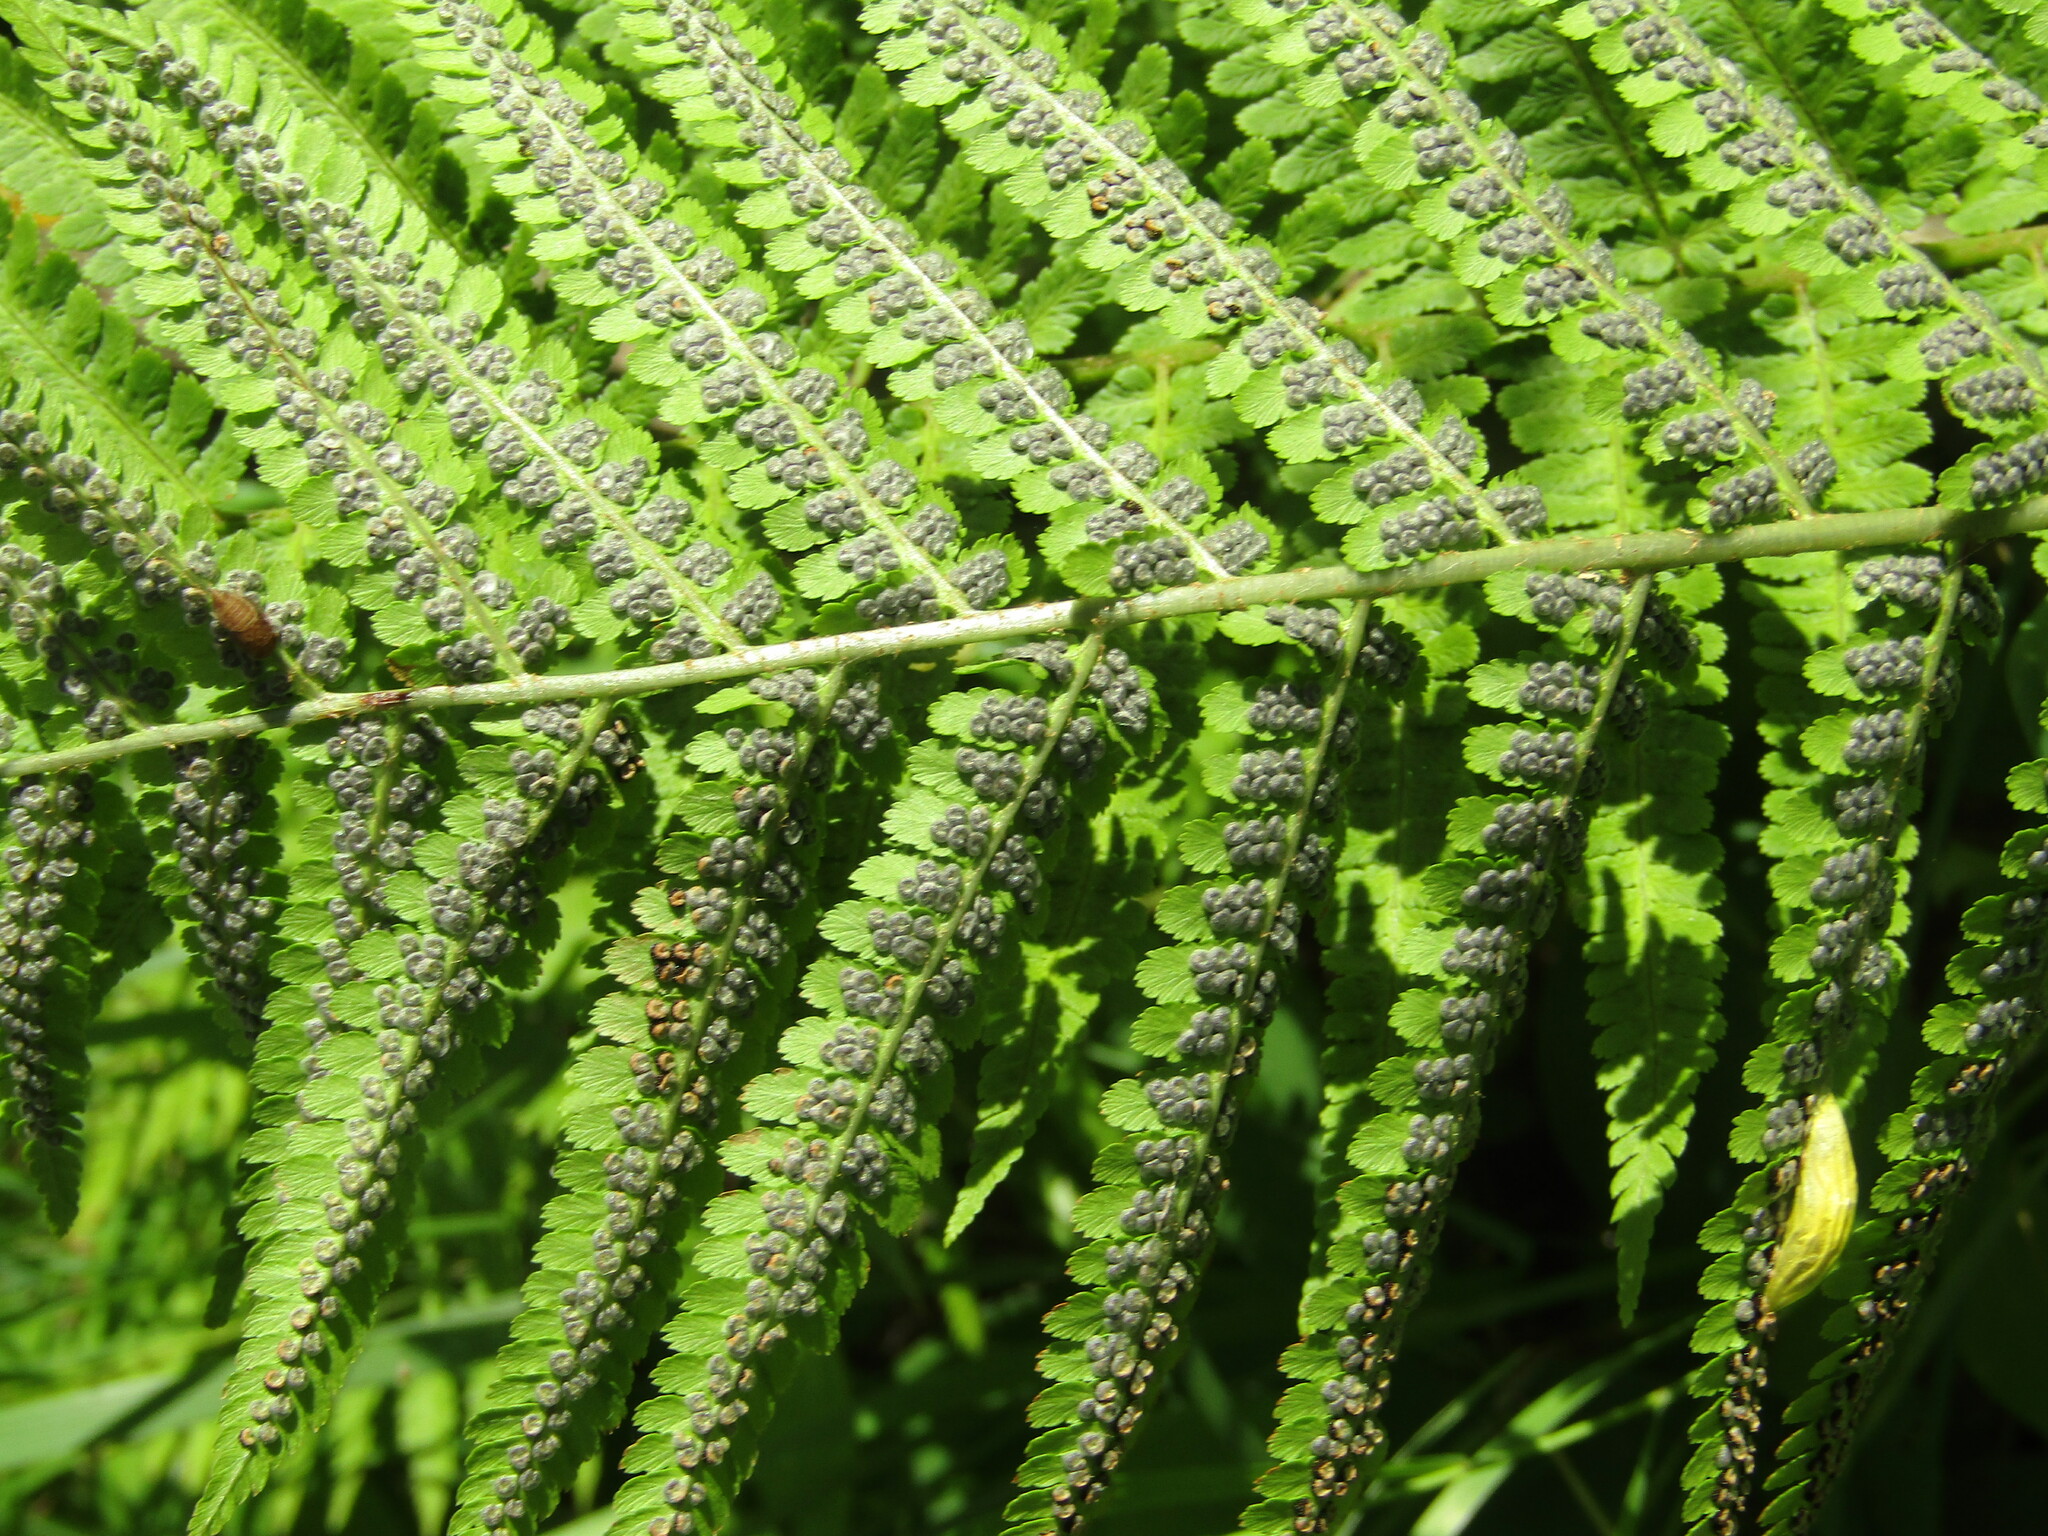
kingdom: Plantae
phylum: Tracheophyta
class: Polypodiopsida
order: Polypodiales
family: Dryopteridaceae
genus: Dryopteris
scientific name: Dryopteris filix-mas
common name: Male fern
